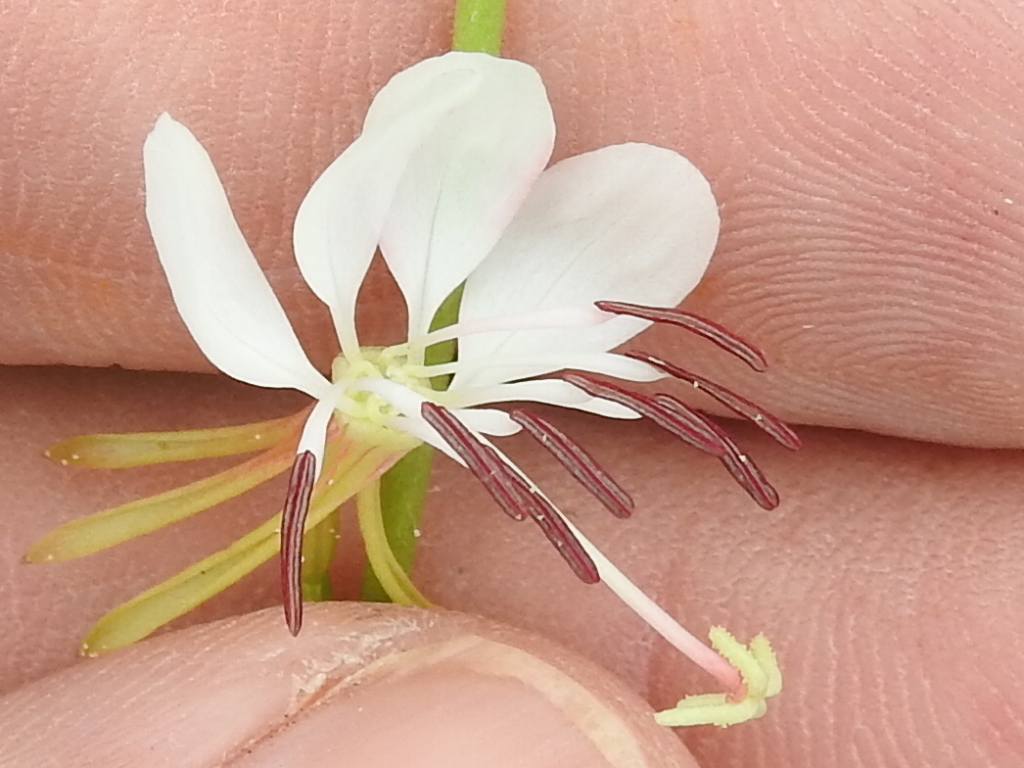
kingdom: Plantae
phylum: Tracheophyta
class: Magnoliopsida
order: Myrtales
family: Onagraceae
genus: Oenothera
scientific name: Oenothera suffulta
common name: Kisses
